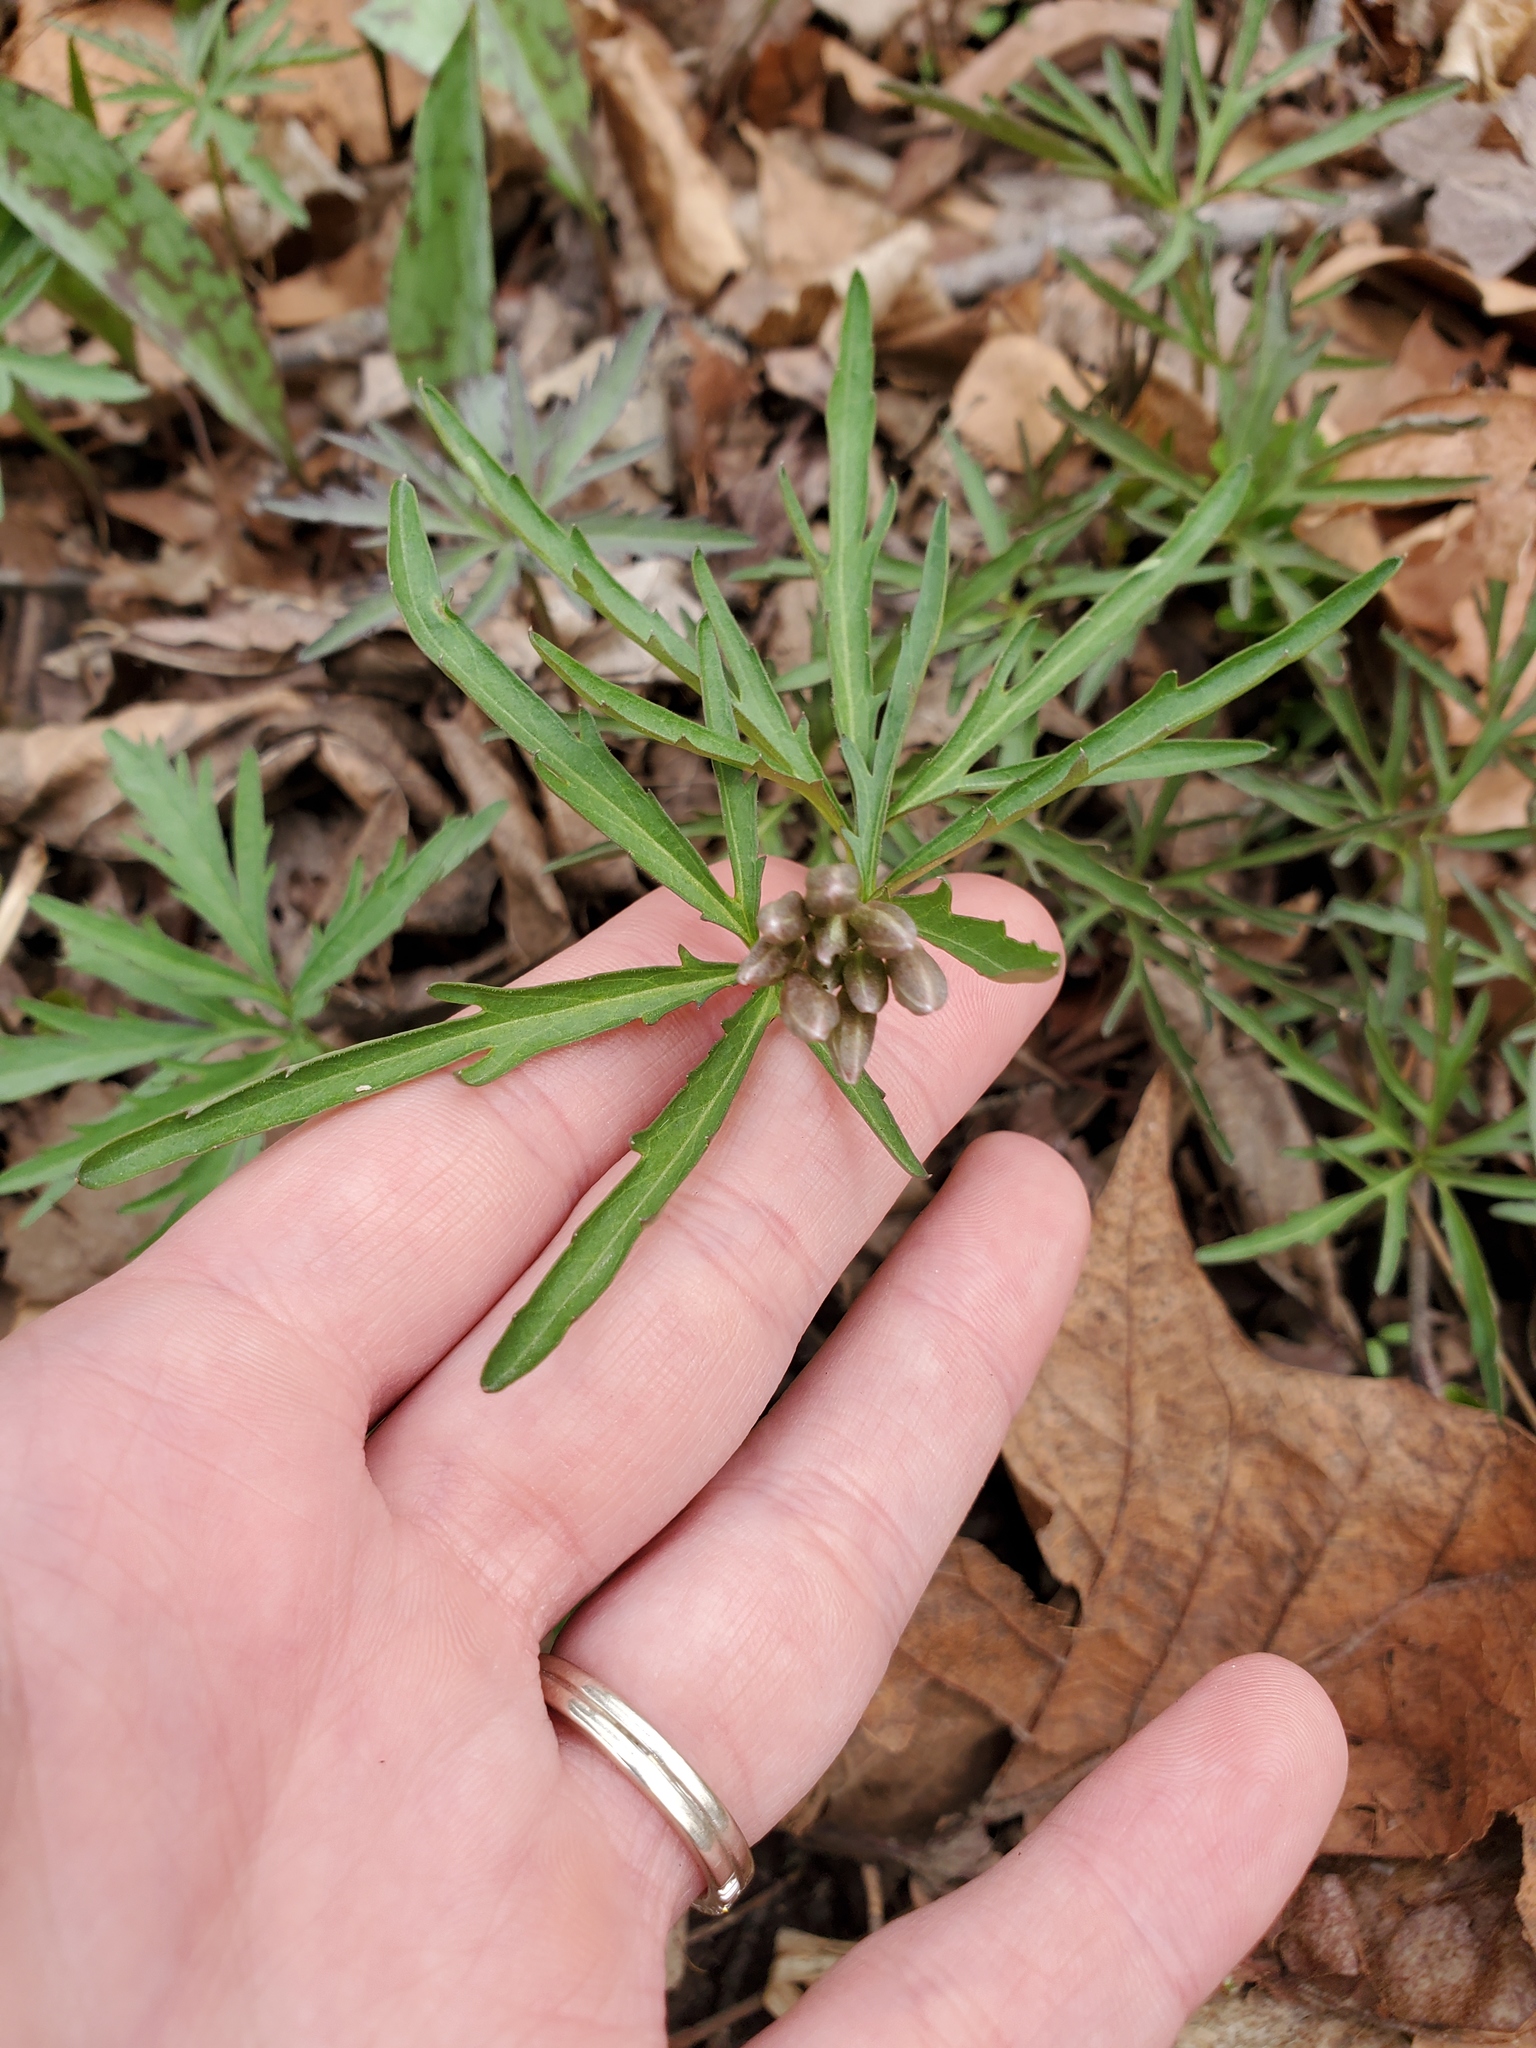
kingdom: Plantae
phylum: Tracheophyta
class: Magnoliopsida
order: Brassicales
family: Brassicaceae
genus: Cardamine
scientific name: Cardamine concatenata
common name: Cut-leaf toothcup
